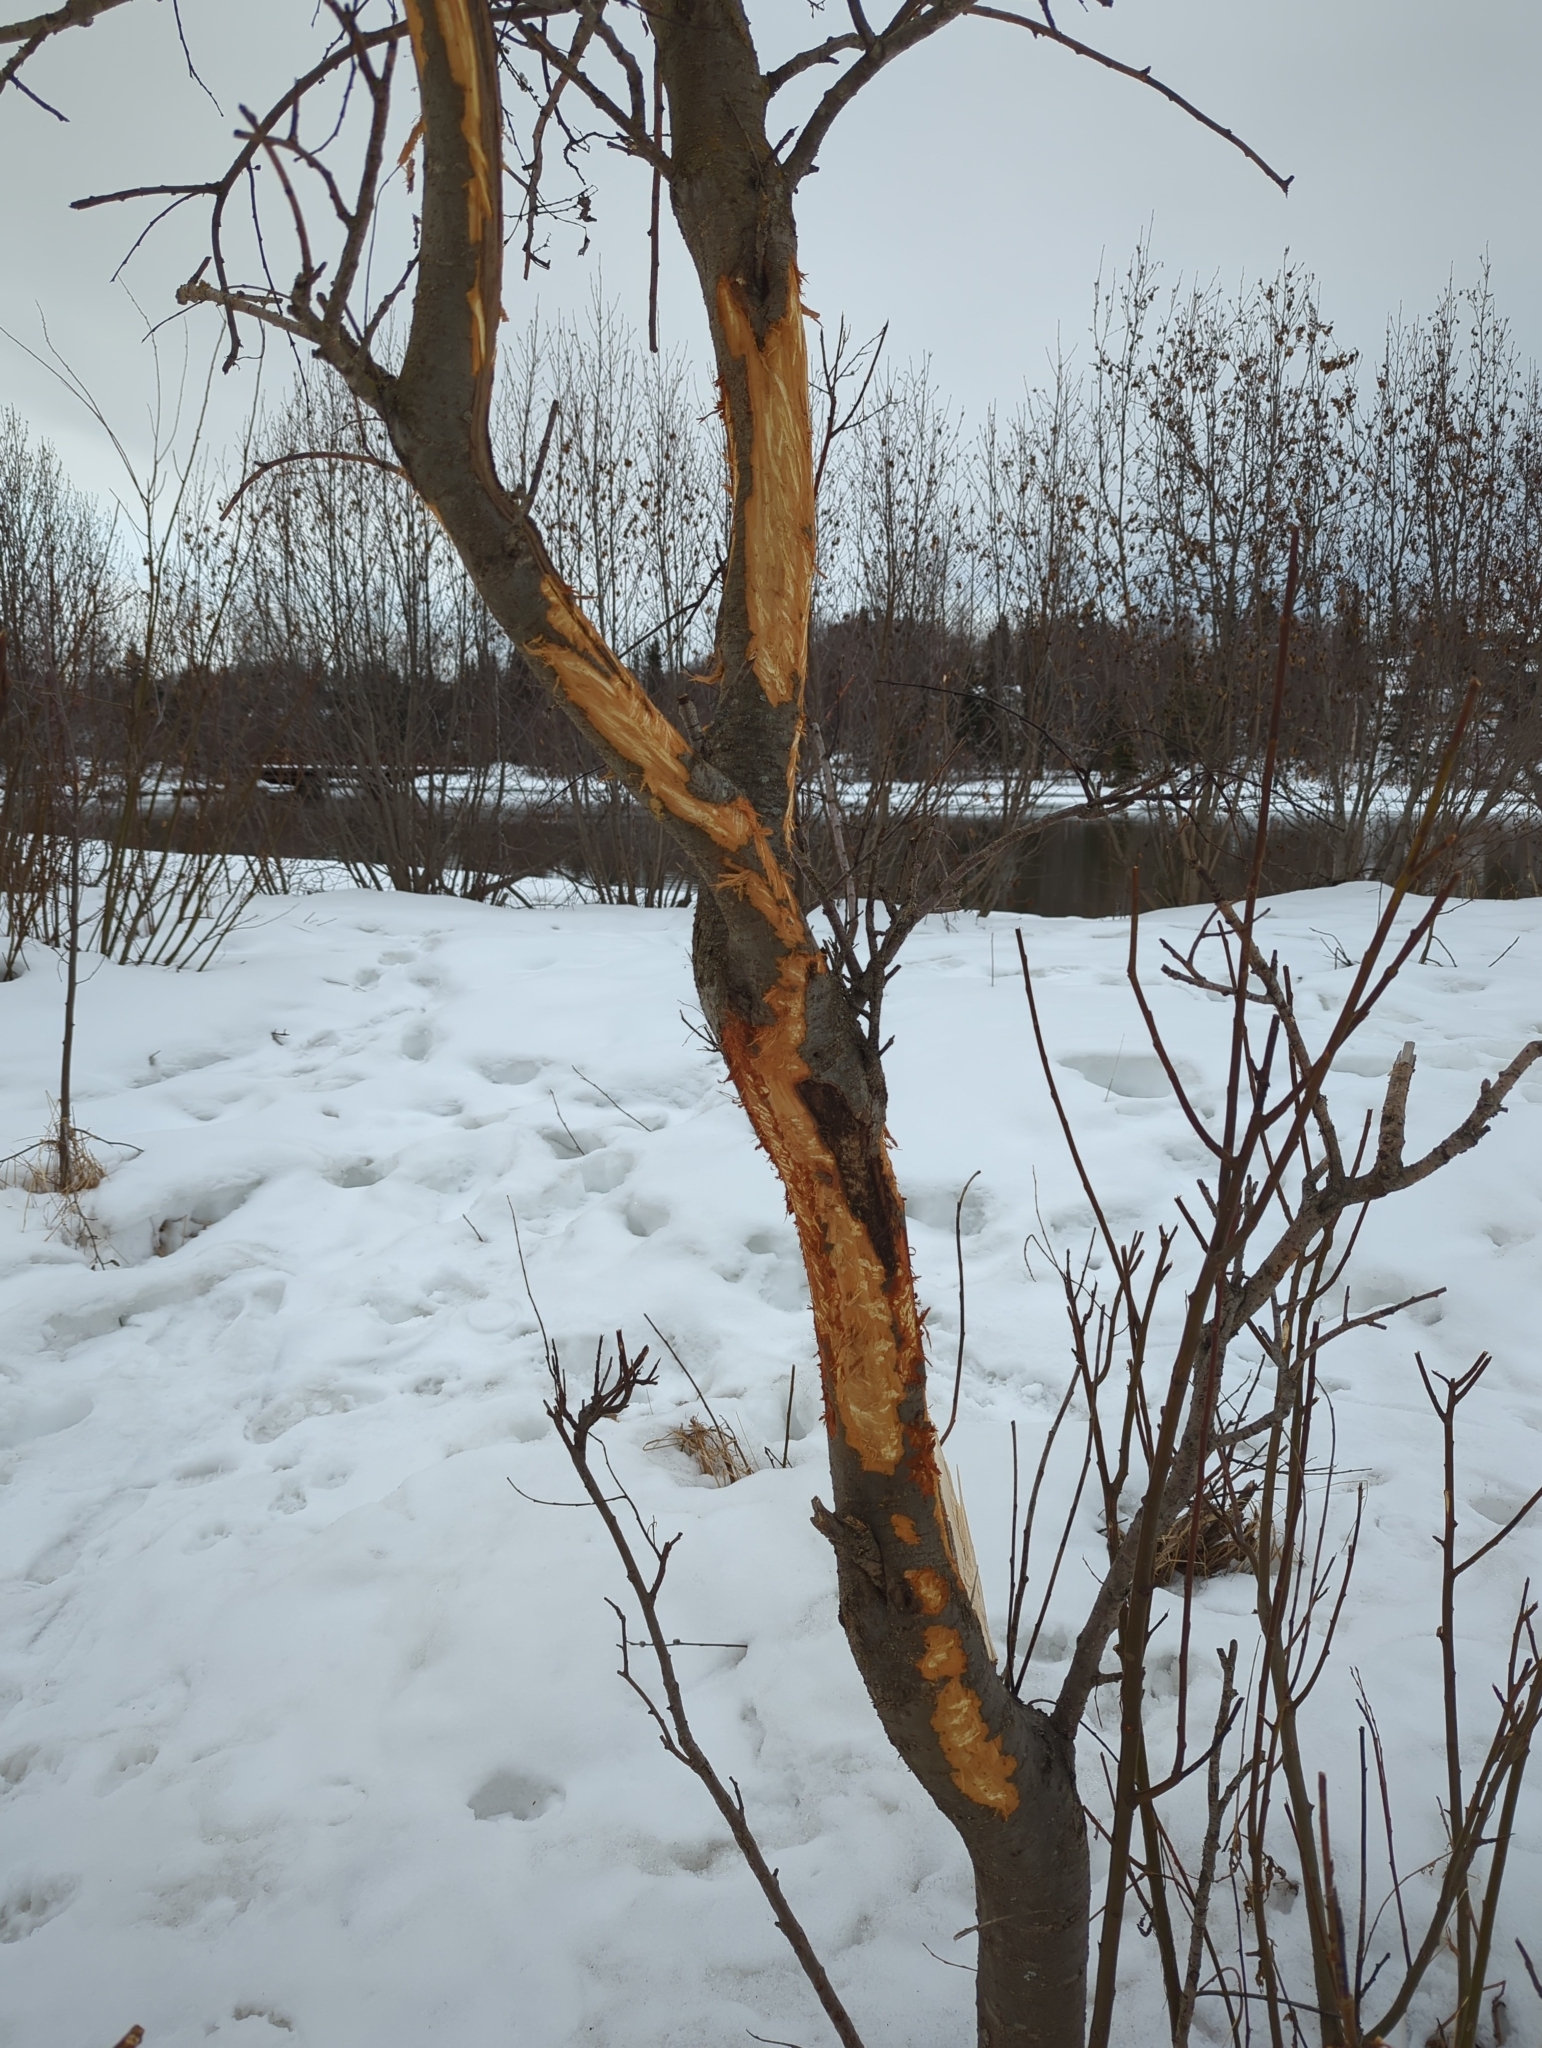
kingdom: Animalia
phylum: Chordata
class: Mammalia
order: Artiodactyla
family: Cervidae
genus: Alces
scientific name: Alces alces
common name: Moose
